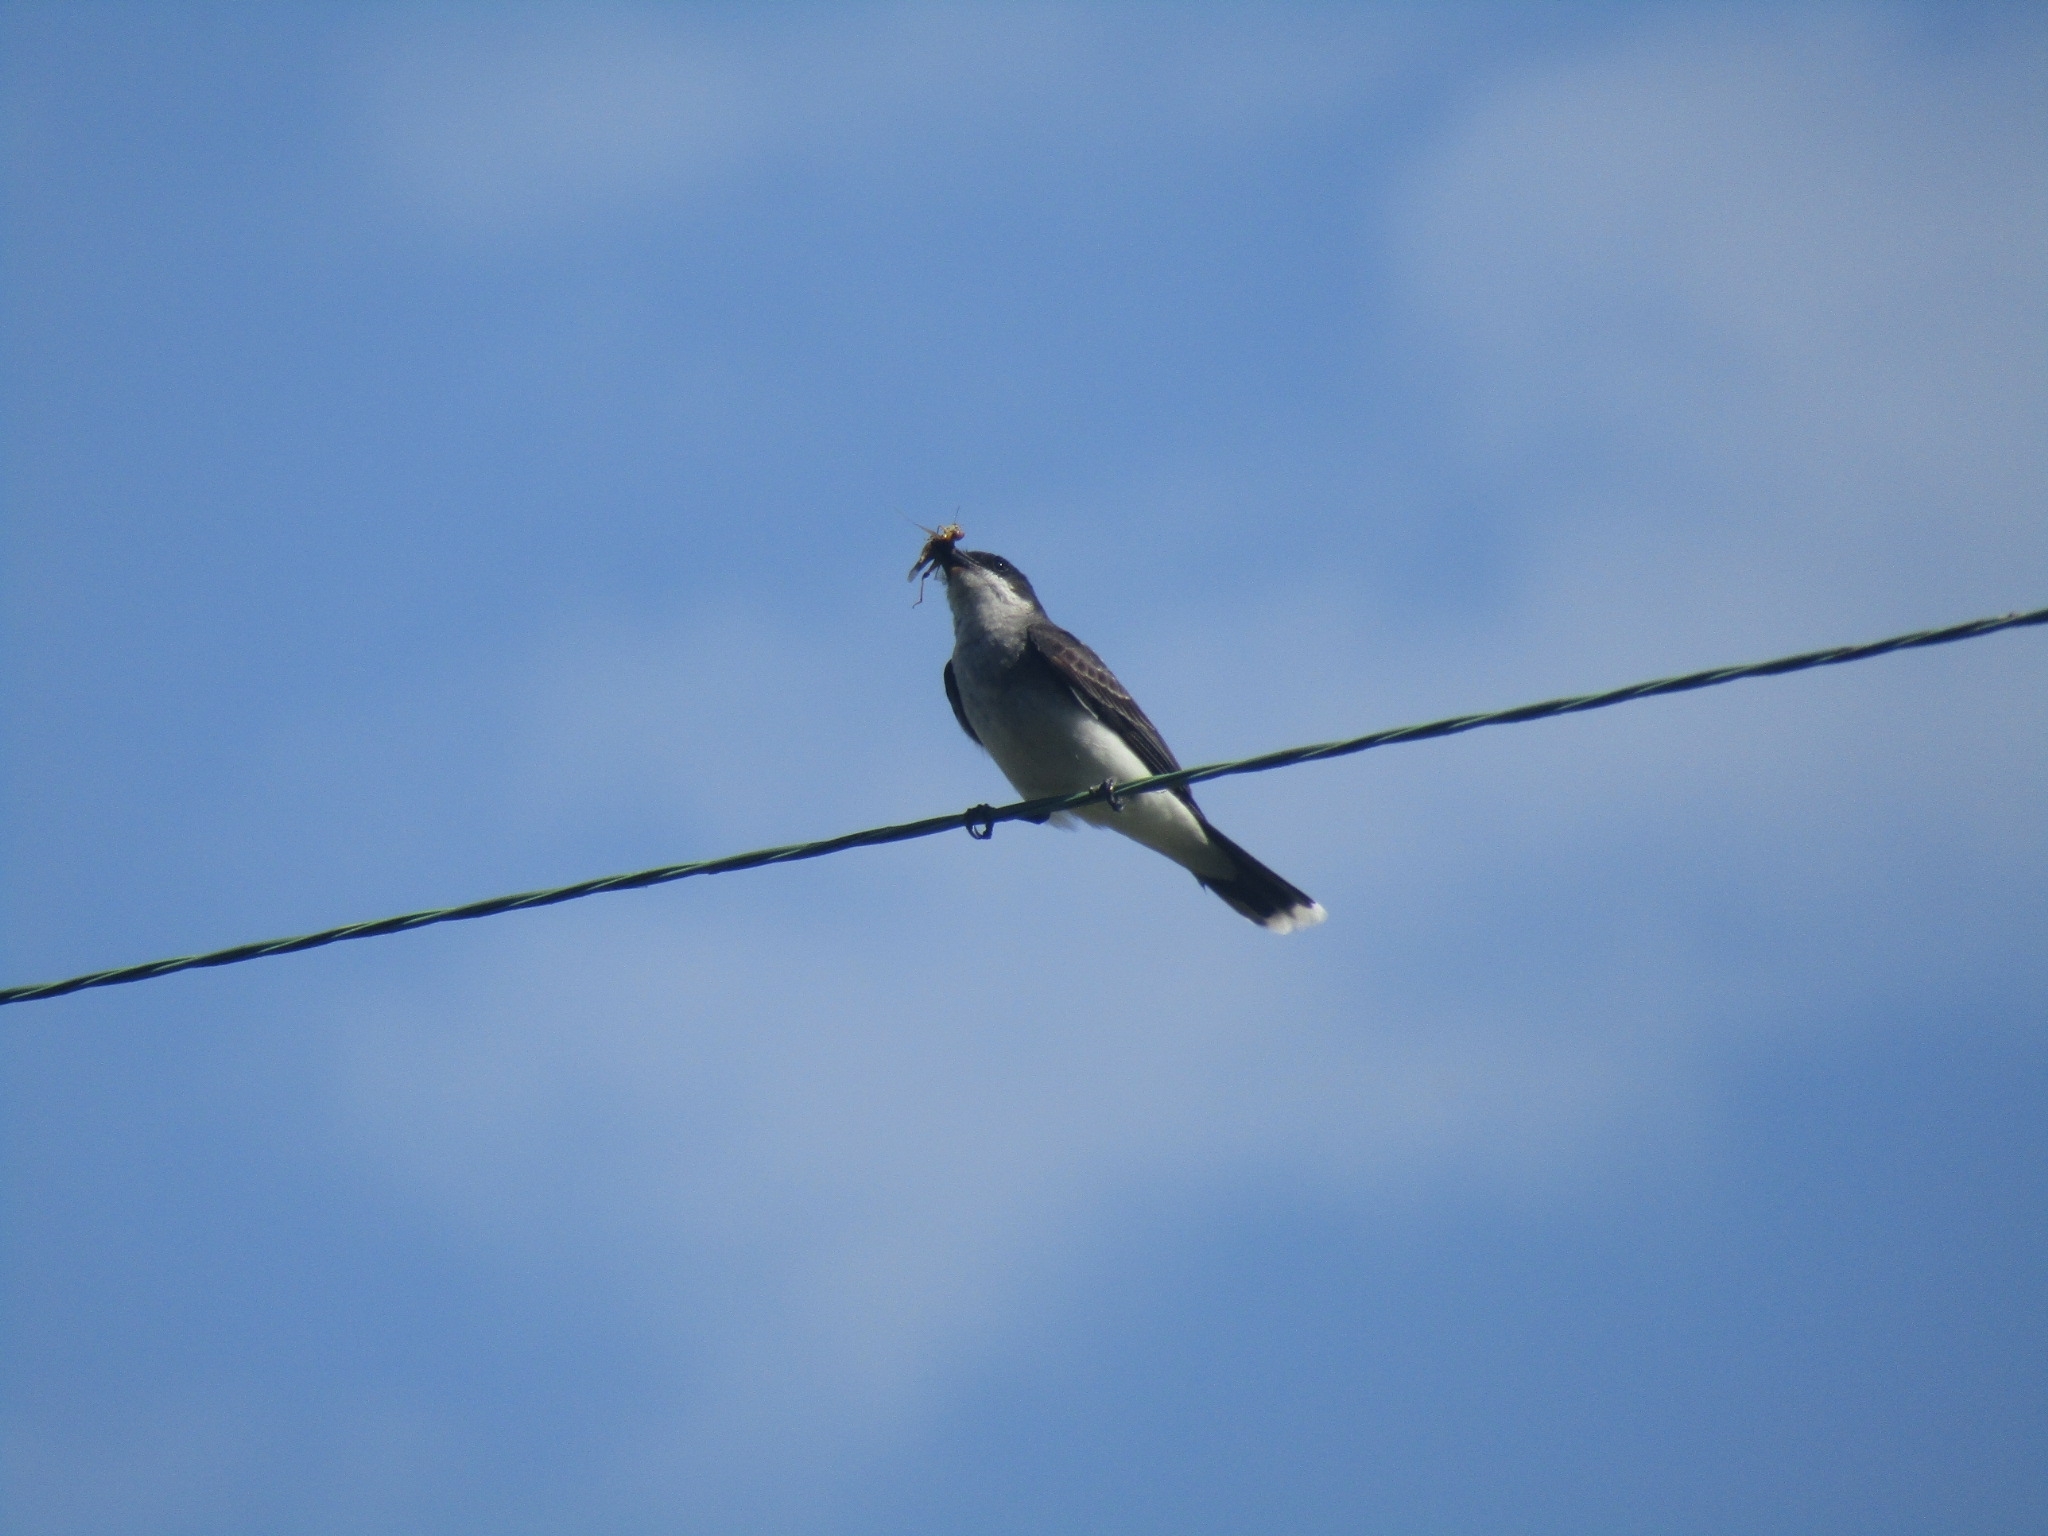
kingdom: Animalia
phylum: Chordata
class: Aves
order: Passeriformes
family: Tyrannidae
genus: Tyrannus
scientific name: Tyrannus tyrannus
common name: Eastern kingbird
